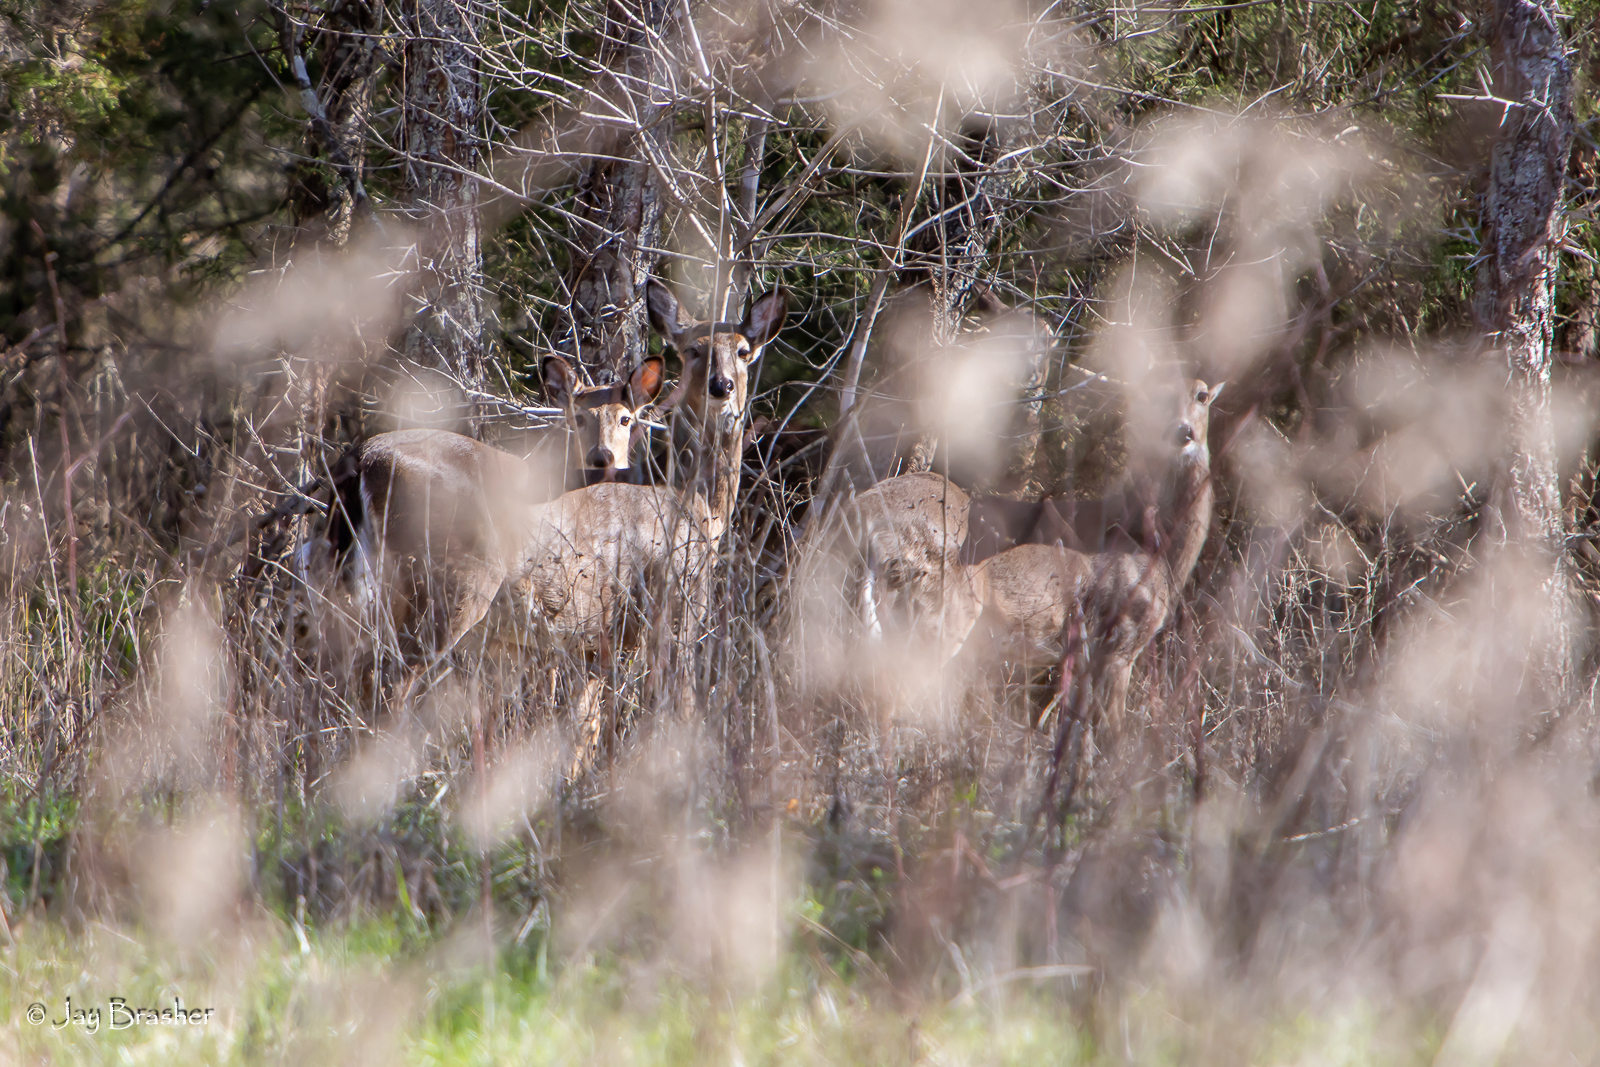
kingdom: Animalia
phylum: Chordata
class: Mammalia
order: Artiodactyla
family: Cervidae
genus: Odocoileus
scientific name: Odocoileus virginianus
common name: White-tailed deer
